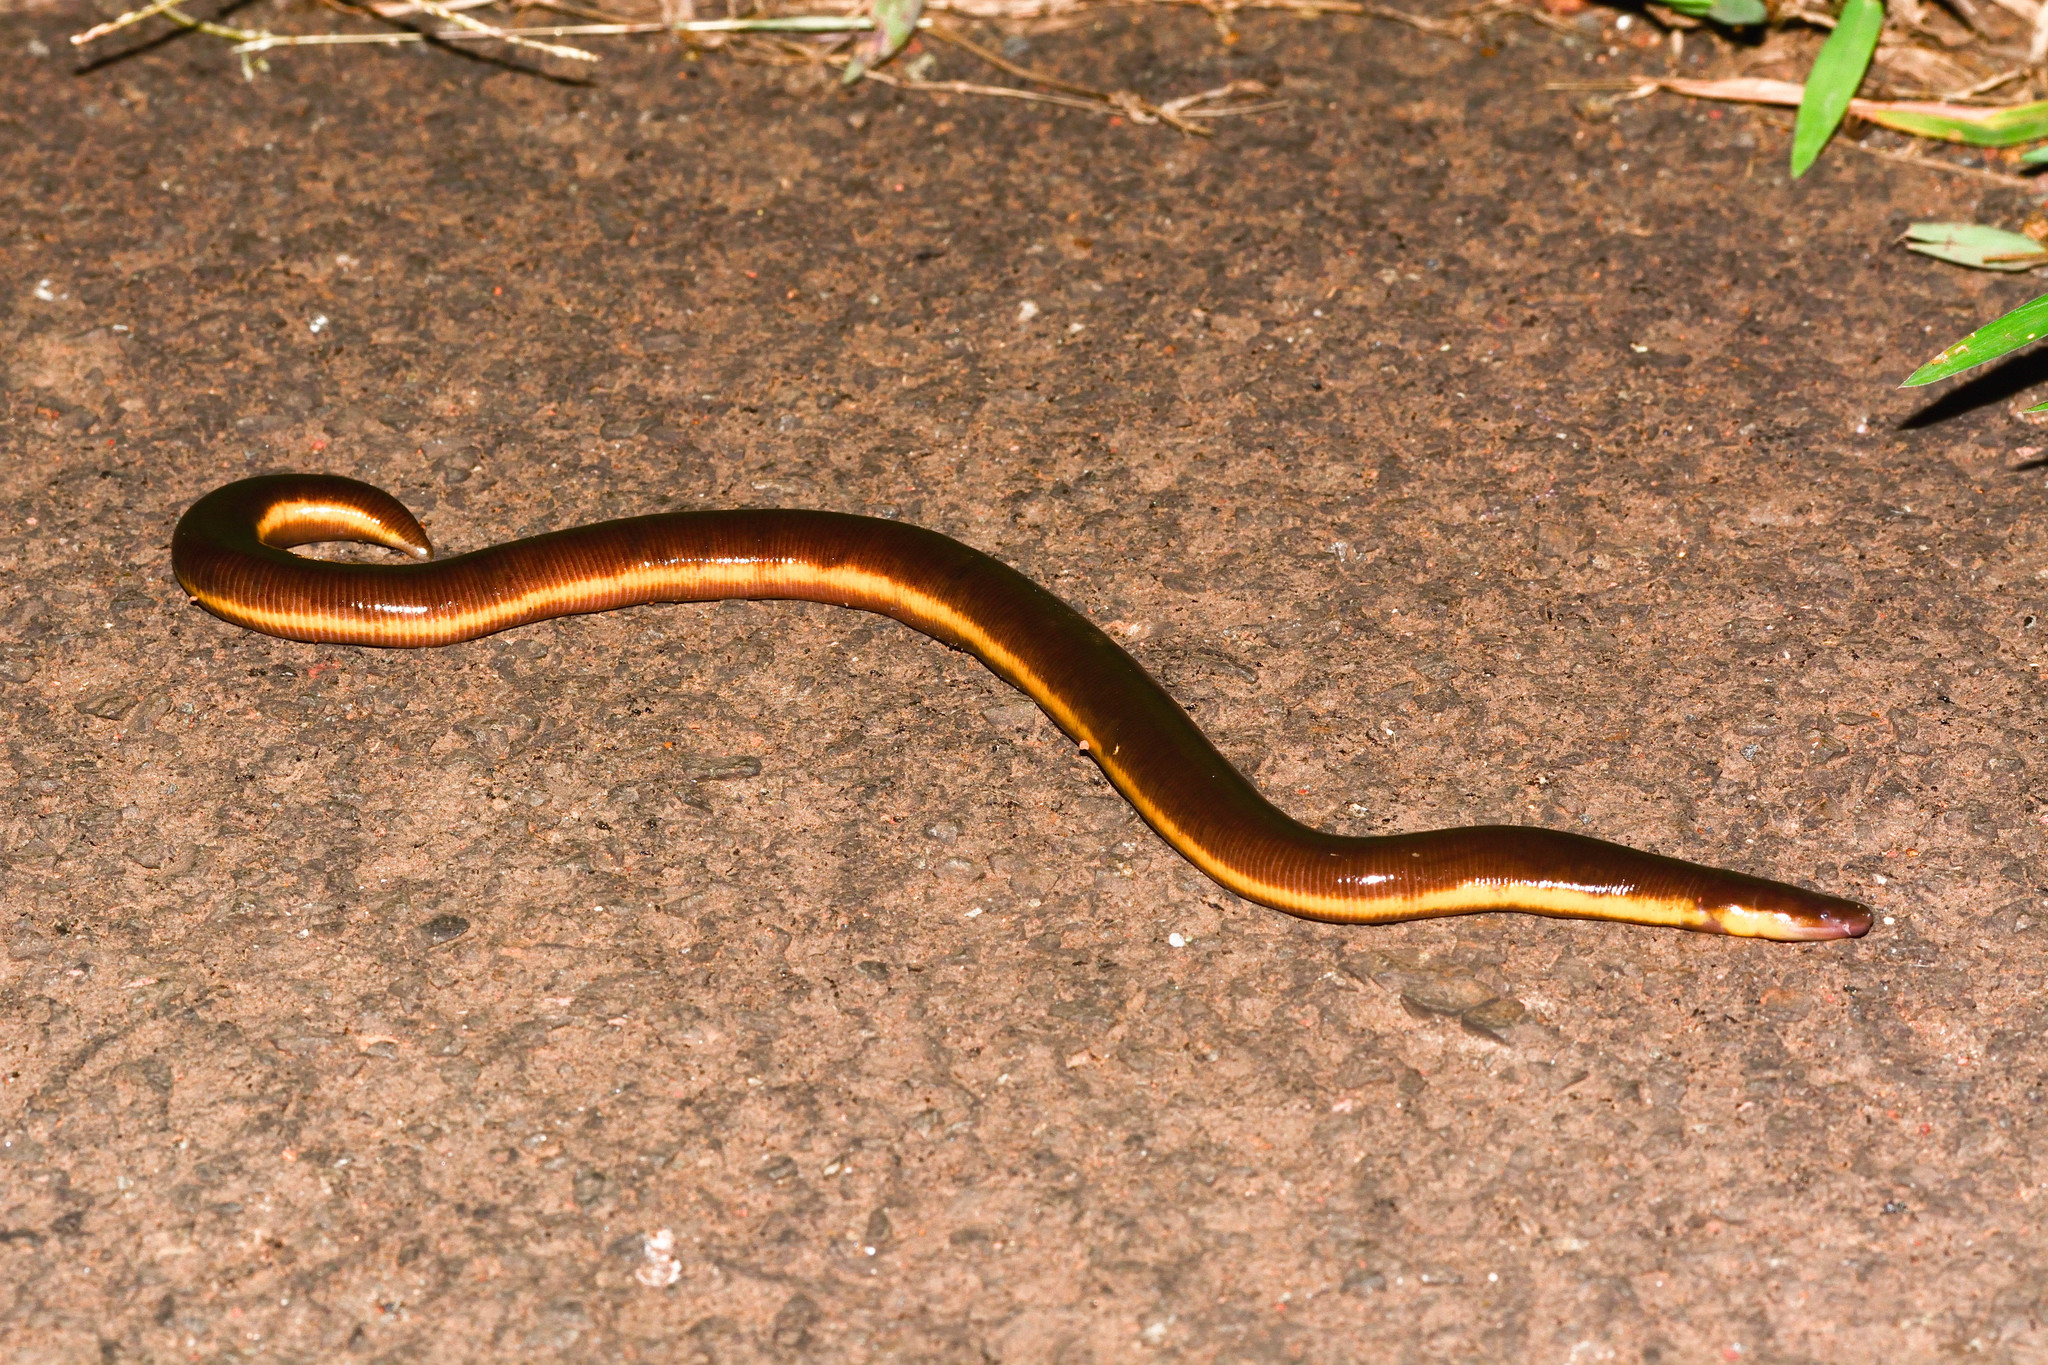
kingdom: Animalia
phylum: Chordata
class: Amphibia
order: Gymnophiona
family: Ichthyophiidae
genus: Ichthyophis
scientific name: Ichthyophis beddomei
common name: Beddome's caecilian
